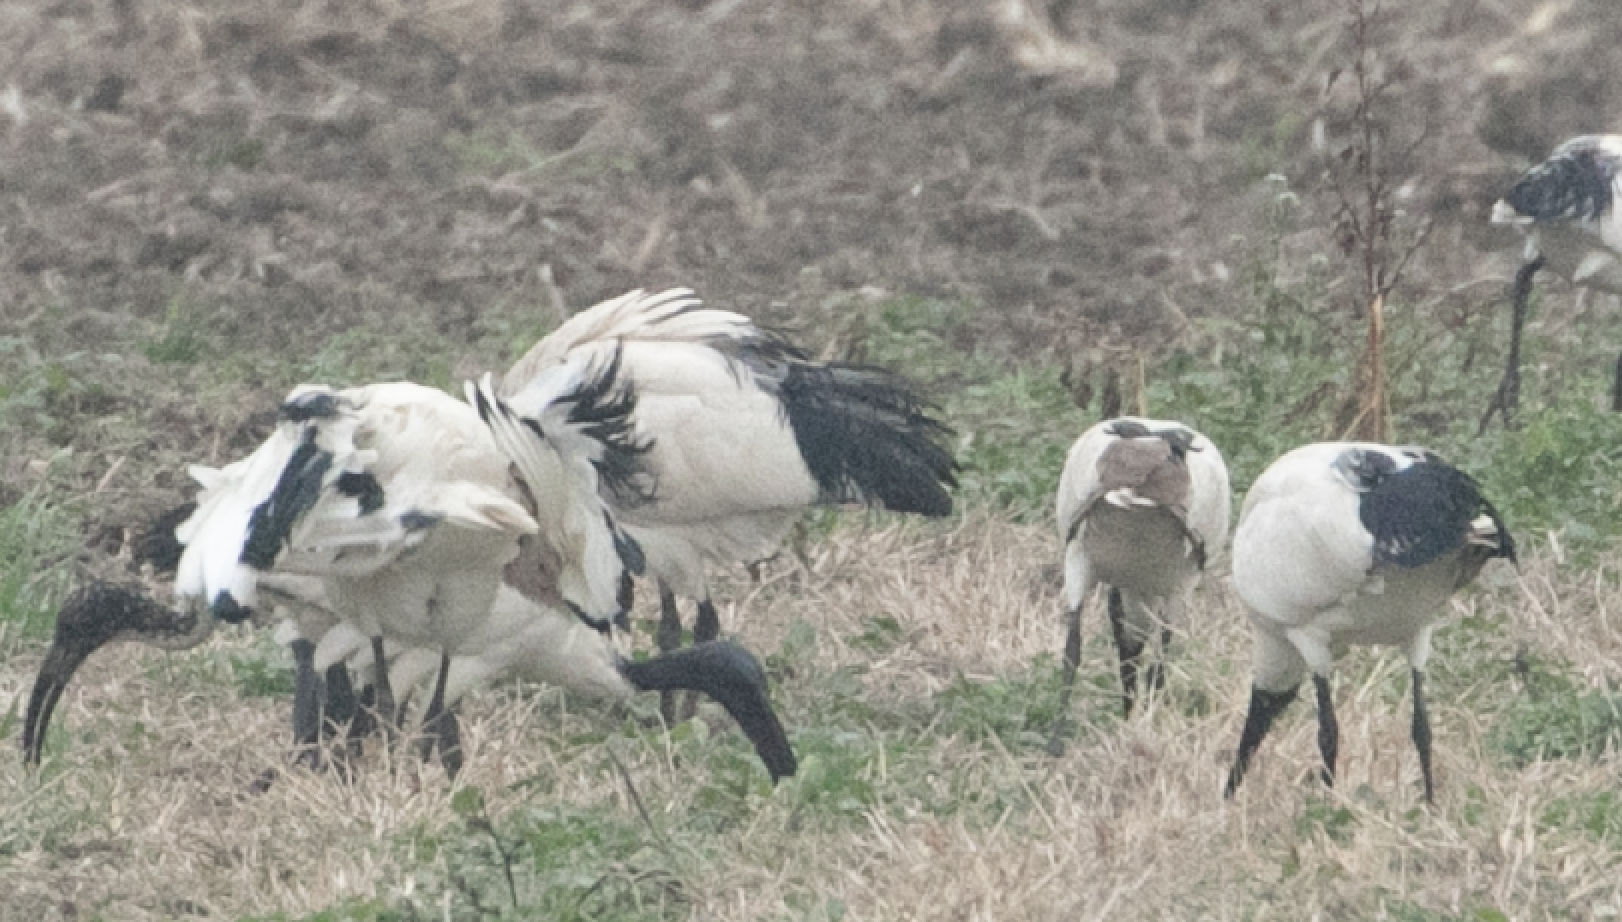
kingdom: Animalia
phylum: Chordata
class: Aves
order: Pelecaniformes
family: Threskiornithidae
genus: Threskiornis
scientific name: Threskiornis aethiopicus
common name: Sacred ibis
